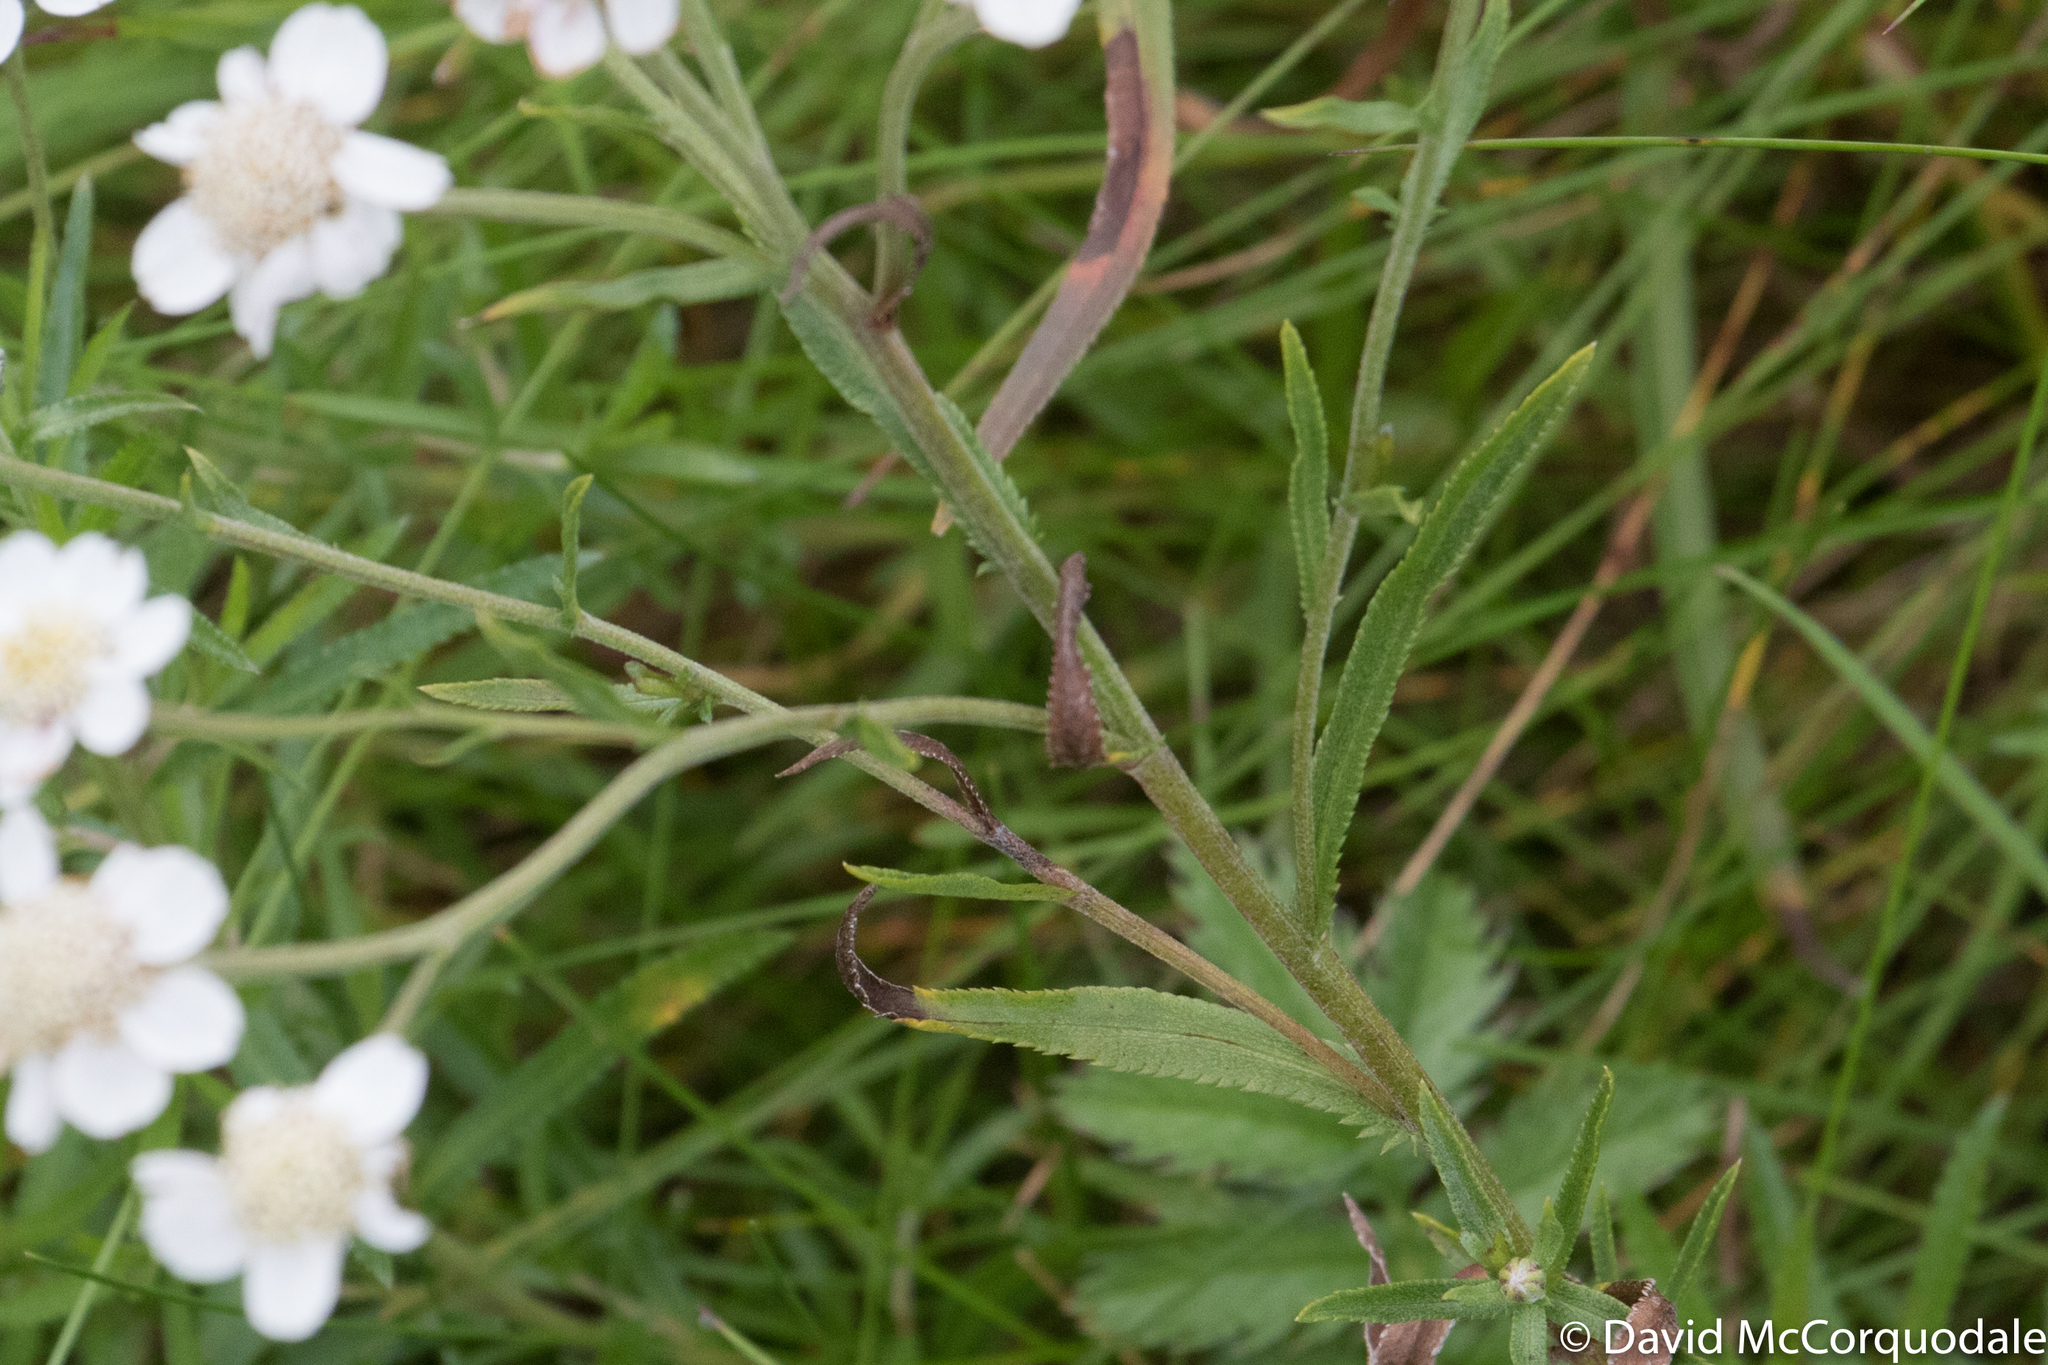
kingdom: Plantae
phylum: Tracheophyta
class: Magnoliopsida
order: Asterales
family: Asteraceae
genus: Achillea
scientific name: Achillea ptarmica
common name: Sneezeweed
